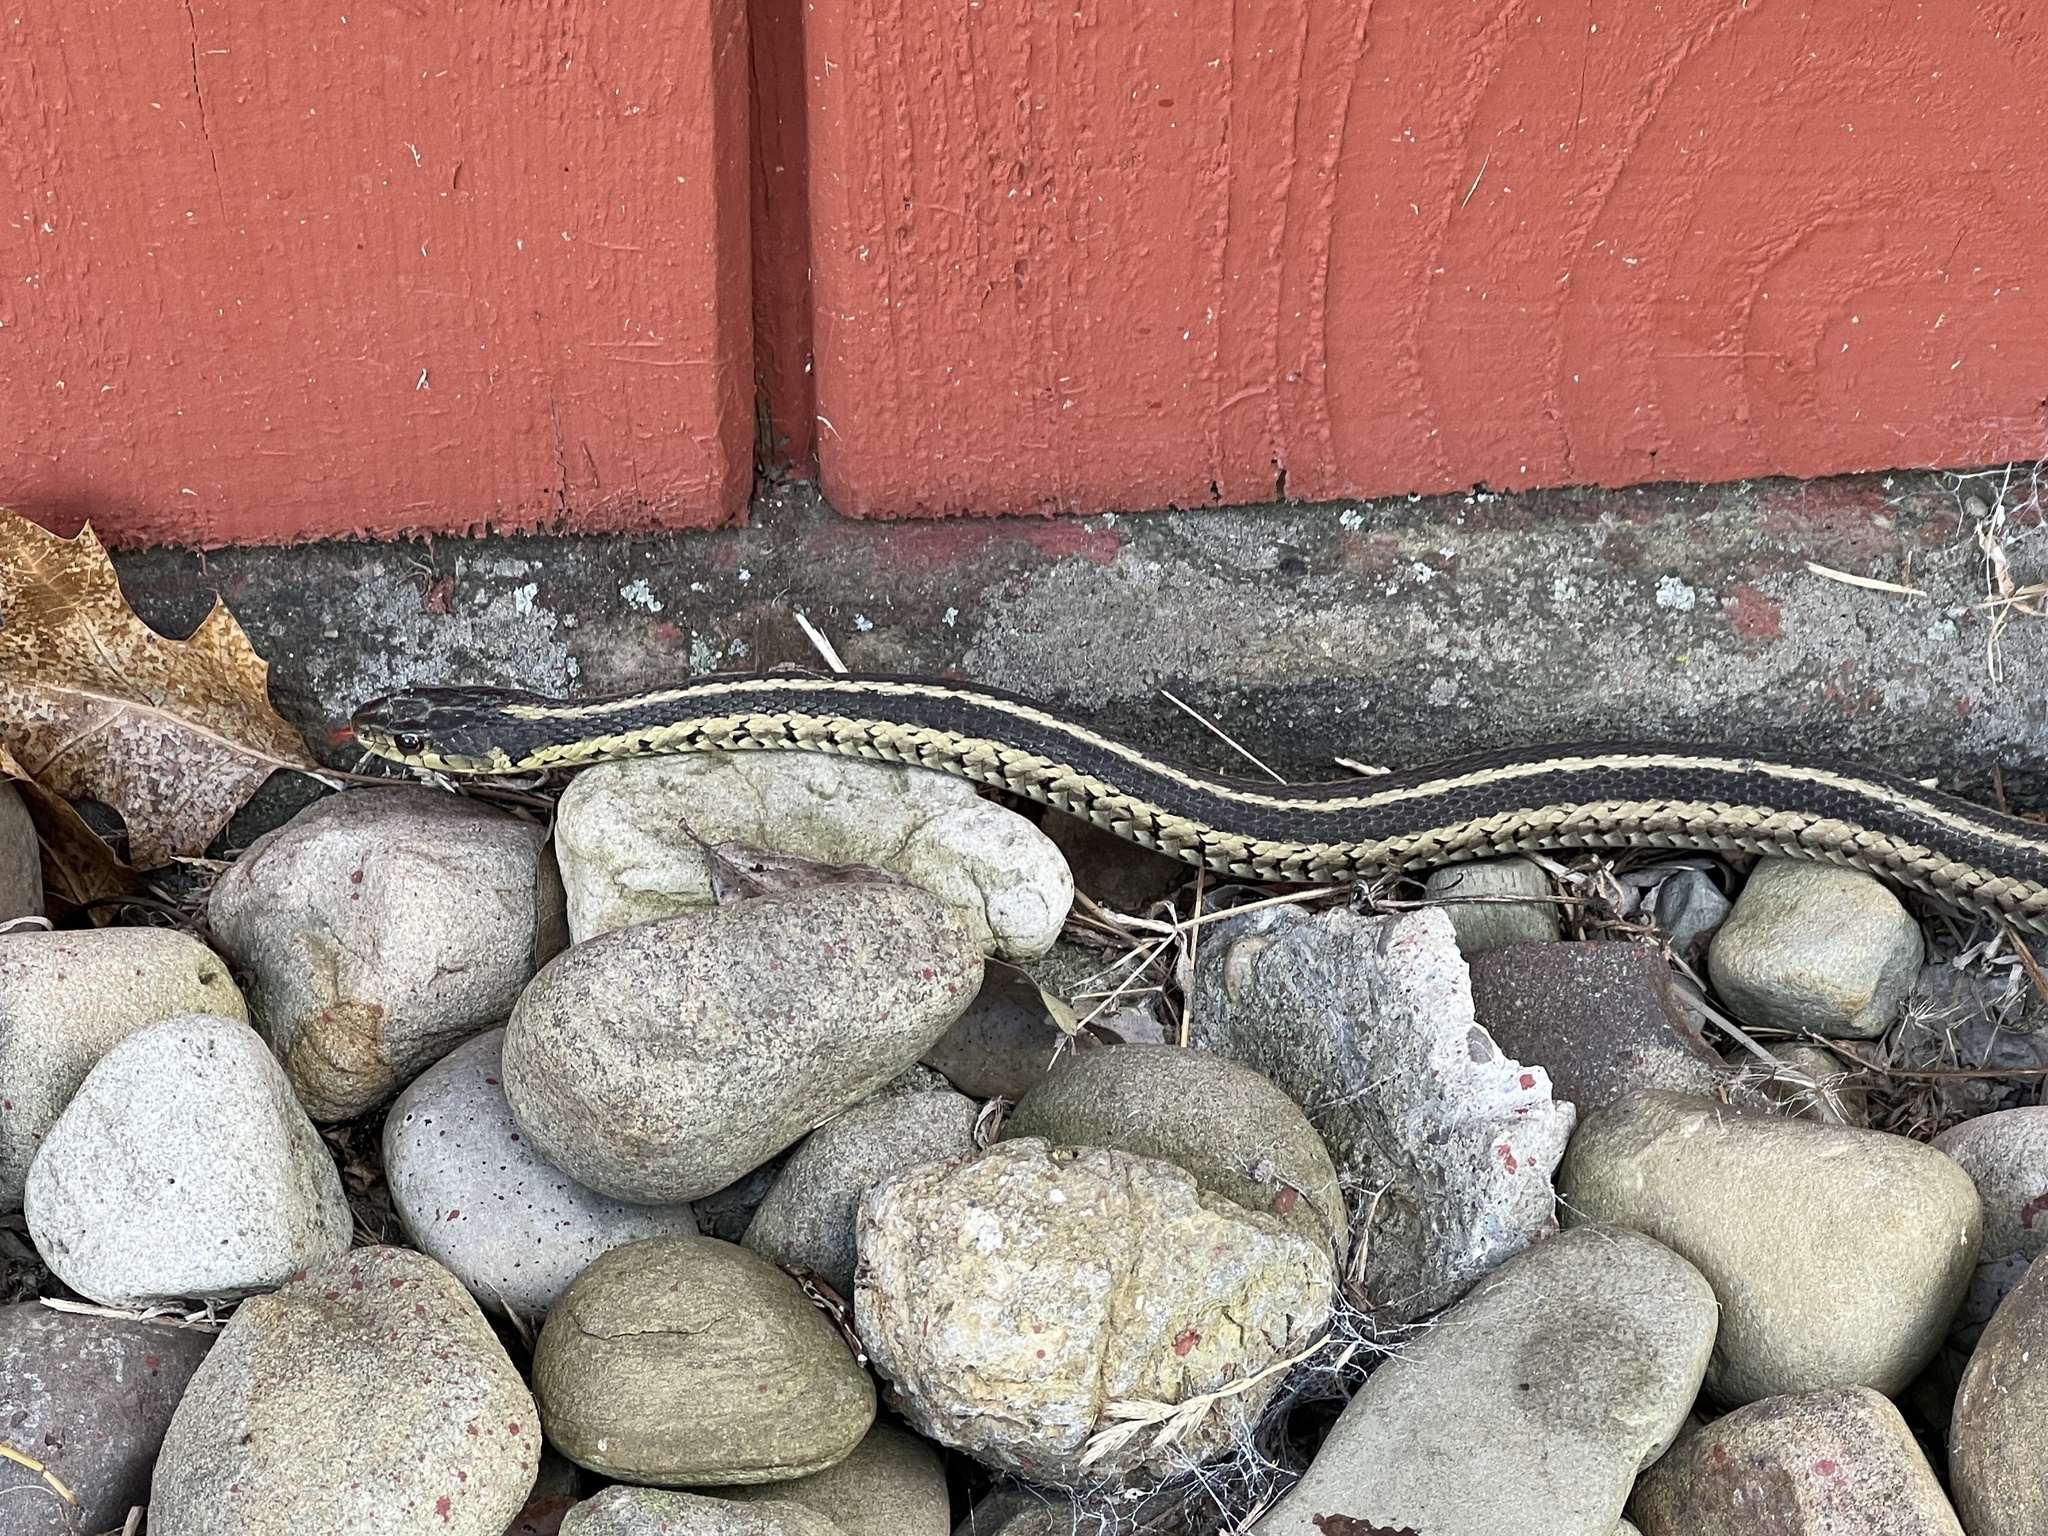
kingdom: Animalia
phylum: Chordata
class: Squamata
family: Colubridae
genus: Thamnophis
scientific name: Thamnophis sirtalis
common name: Common garter snake
